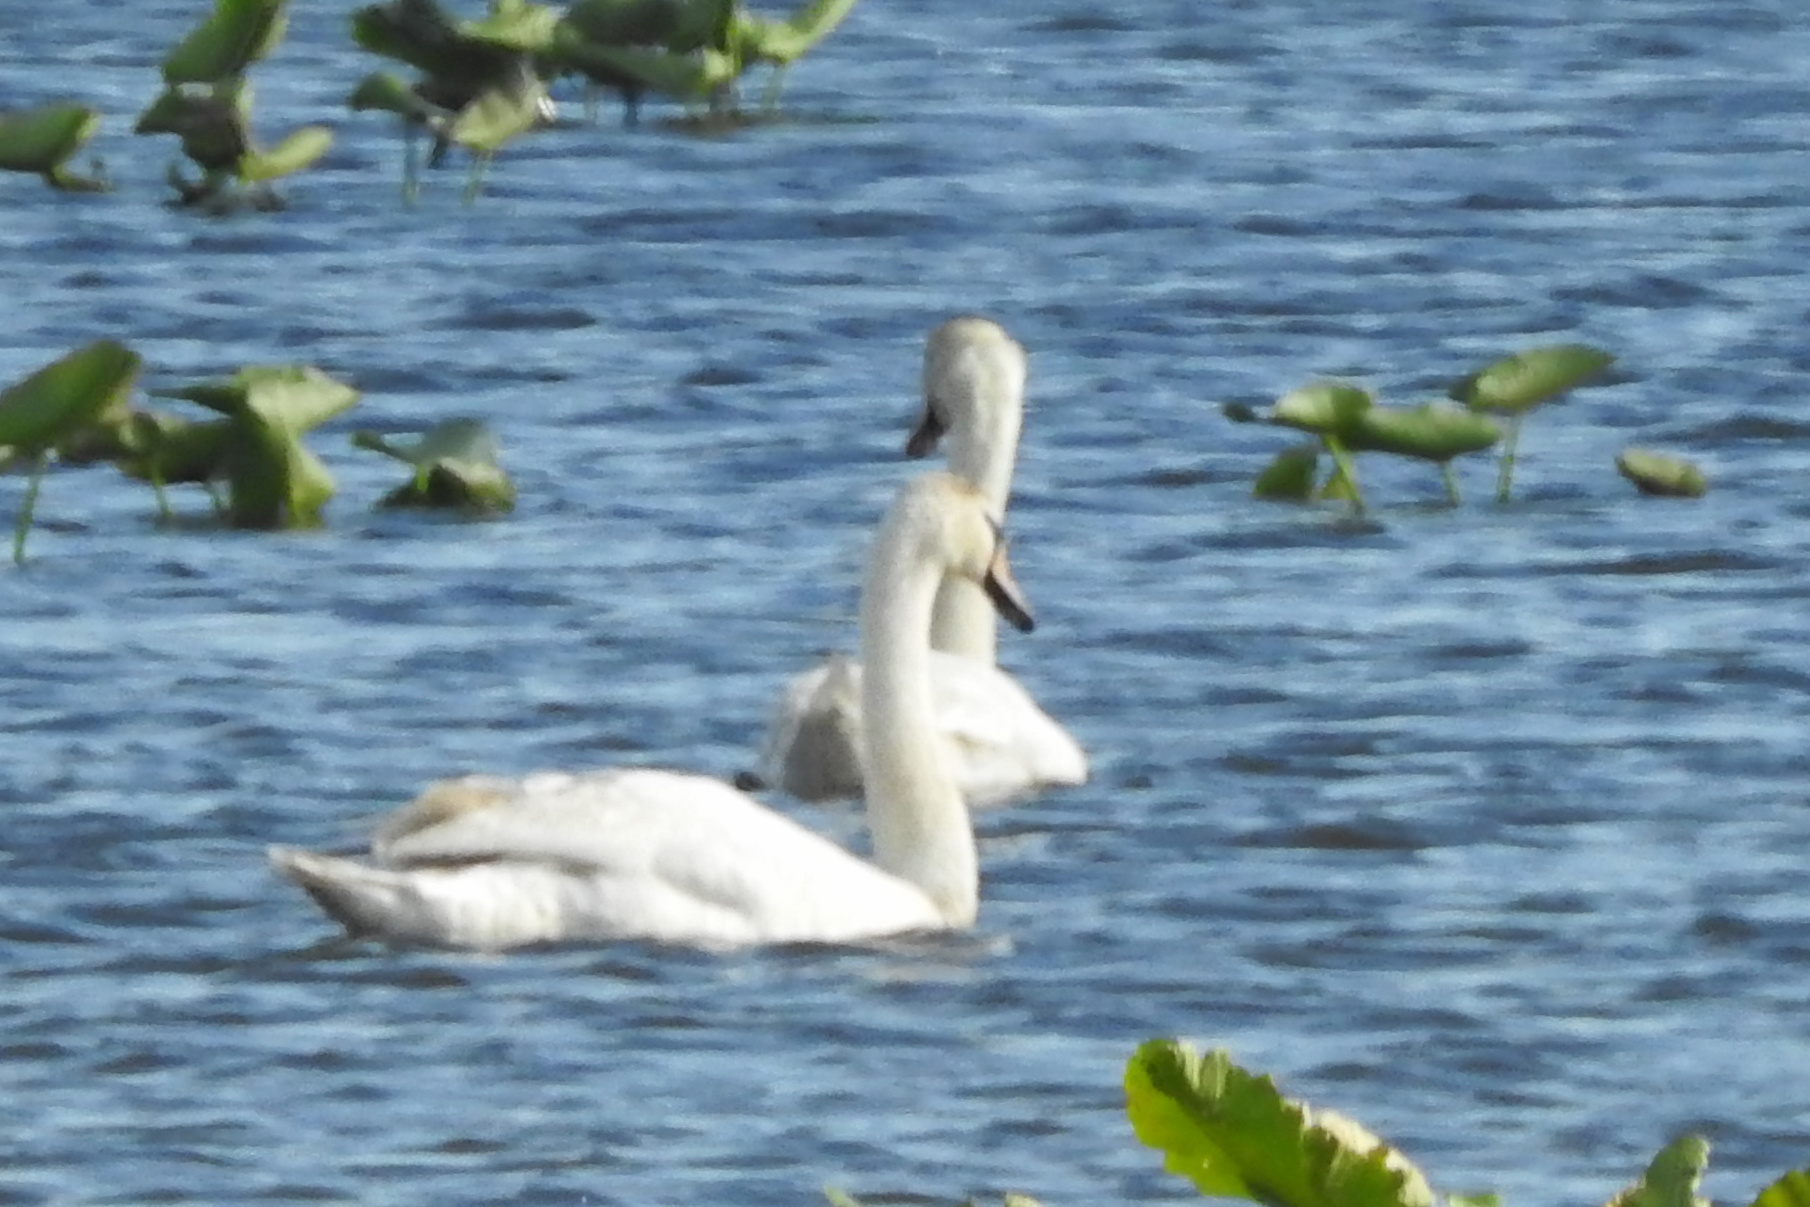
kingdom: Animalia
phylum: Chordata
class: Aves
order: Anseriformes
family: Anatidae
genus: Cygnus
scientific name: Cygnus olor
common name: Mute swan
